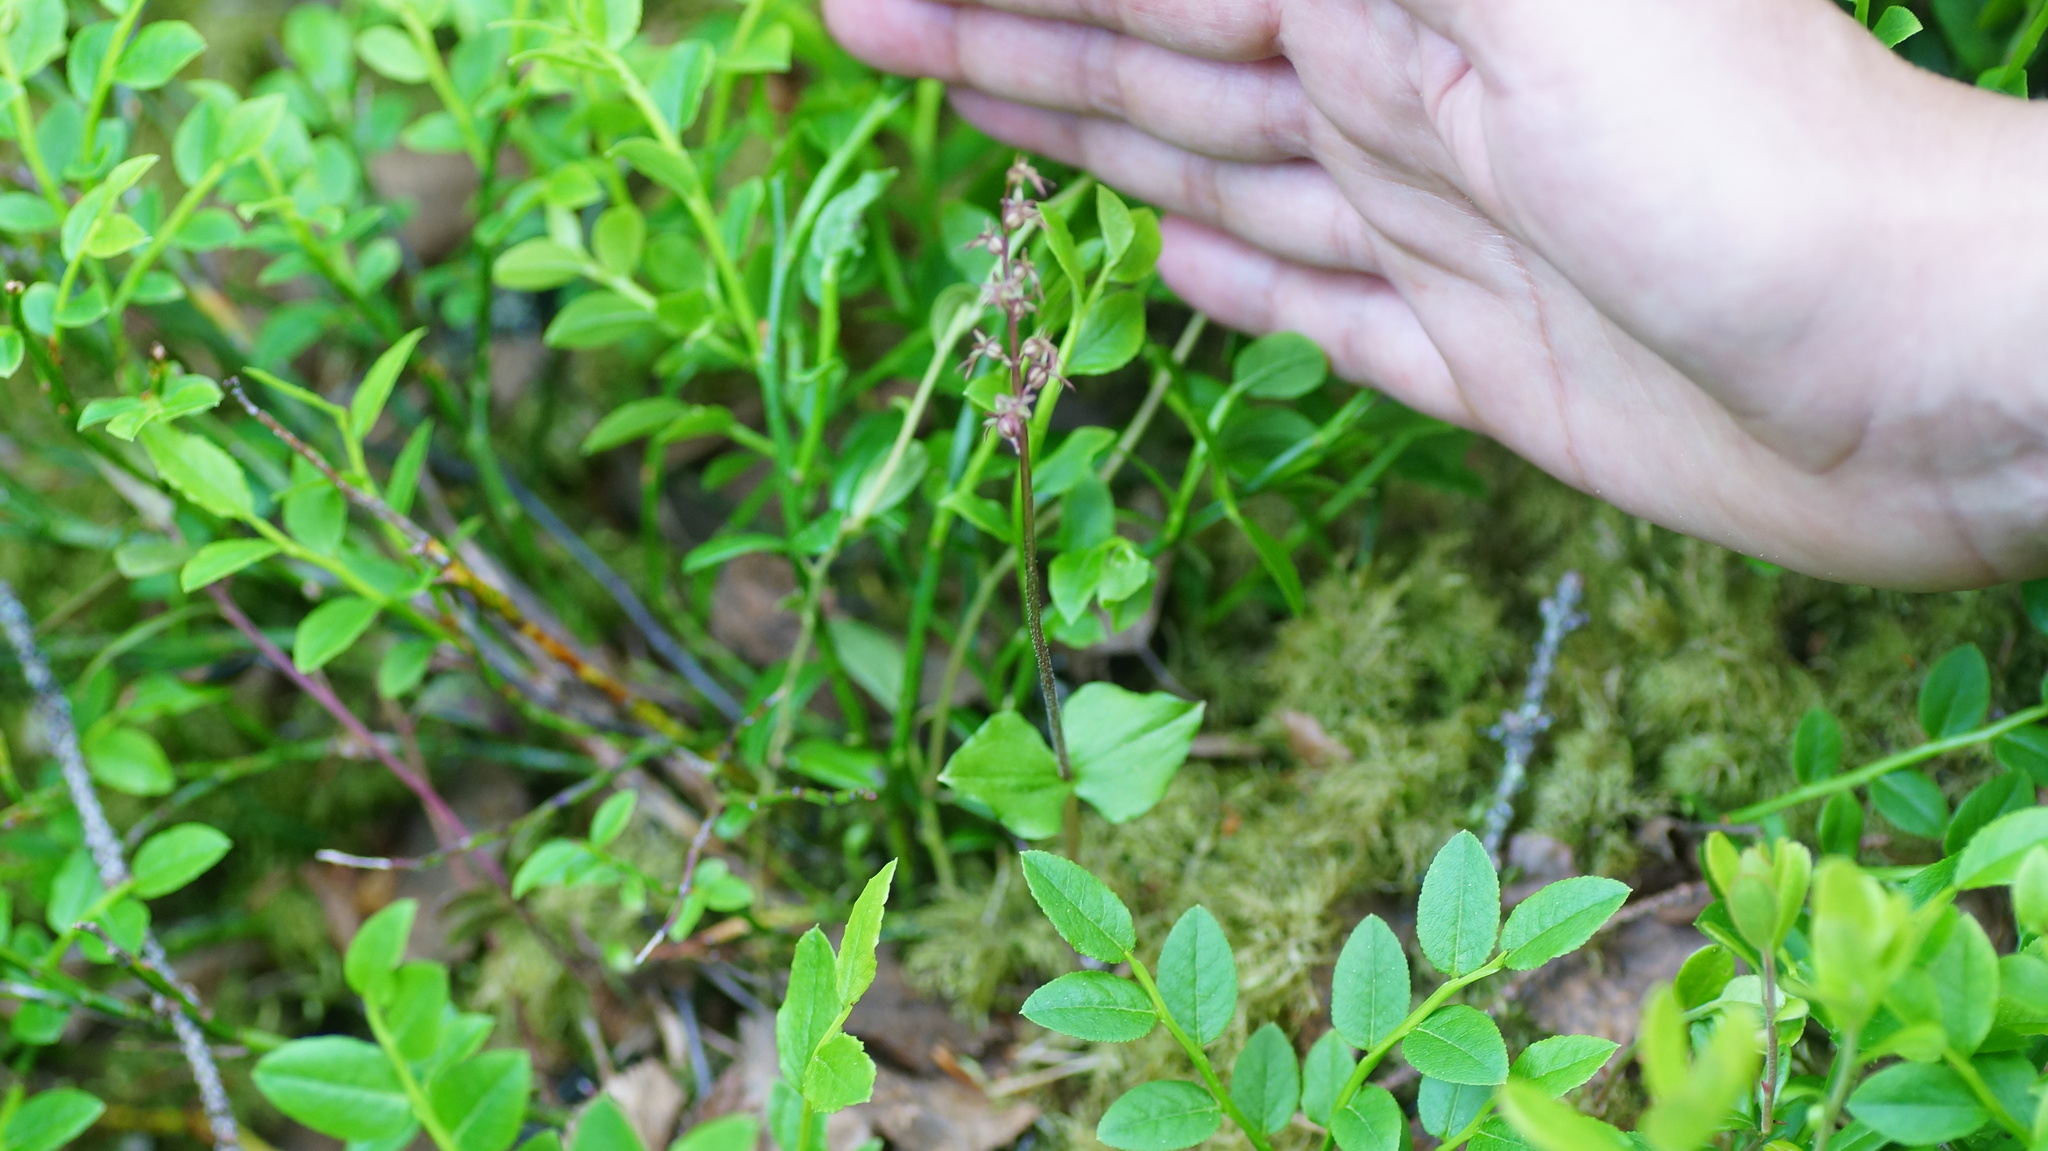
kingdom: Plantae
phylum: Tracheophyta
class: Liliopsida
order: Asparagales
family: Orchidaceae
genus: Neottia
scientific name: Neottia cordata
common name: Lesser twayblade
